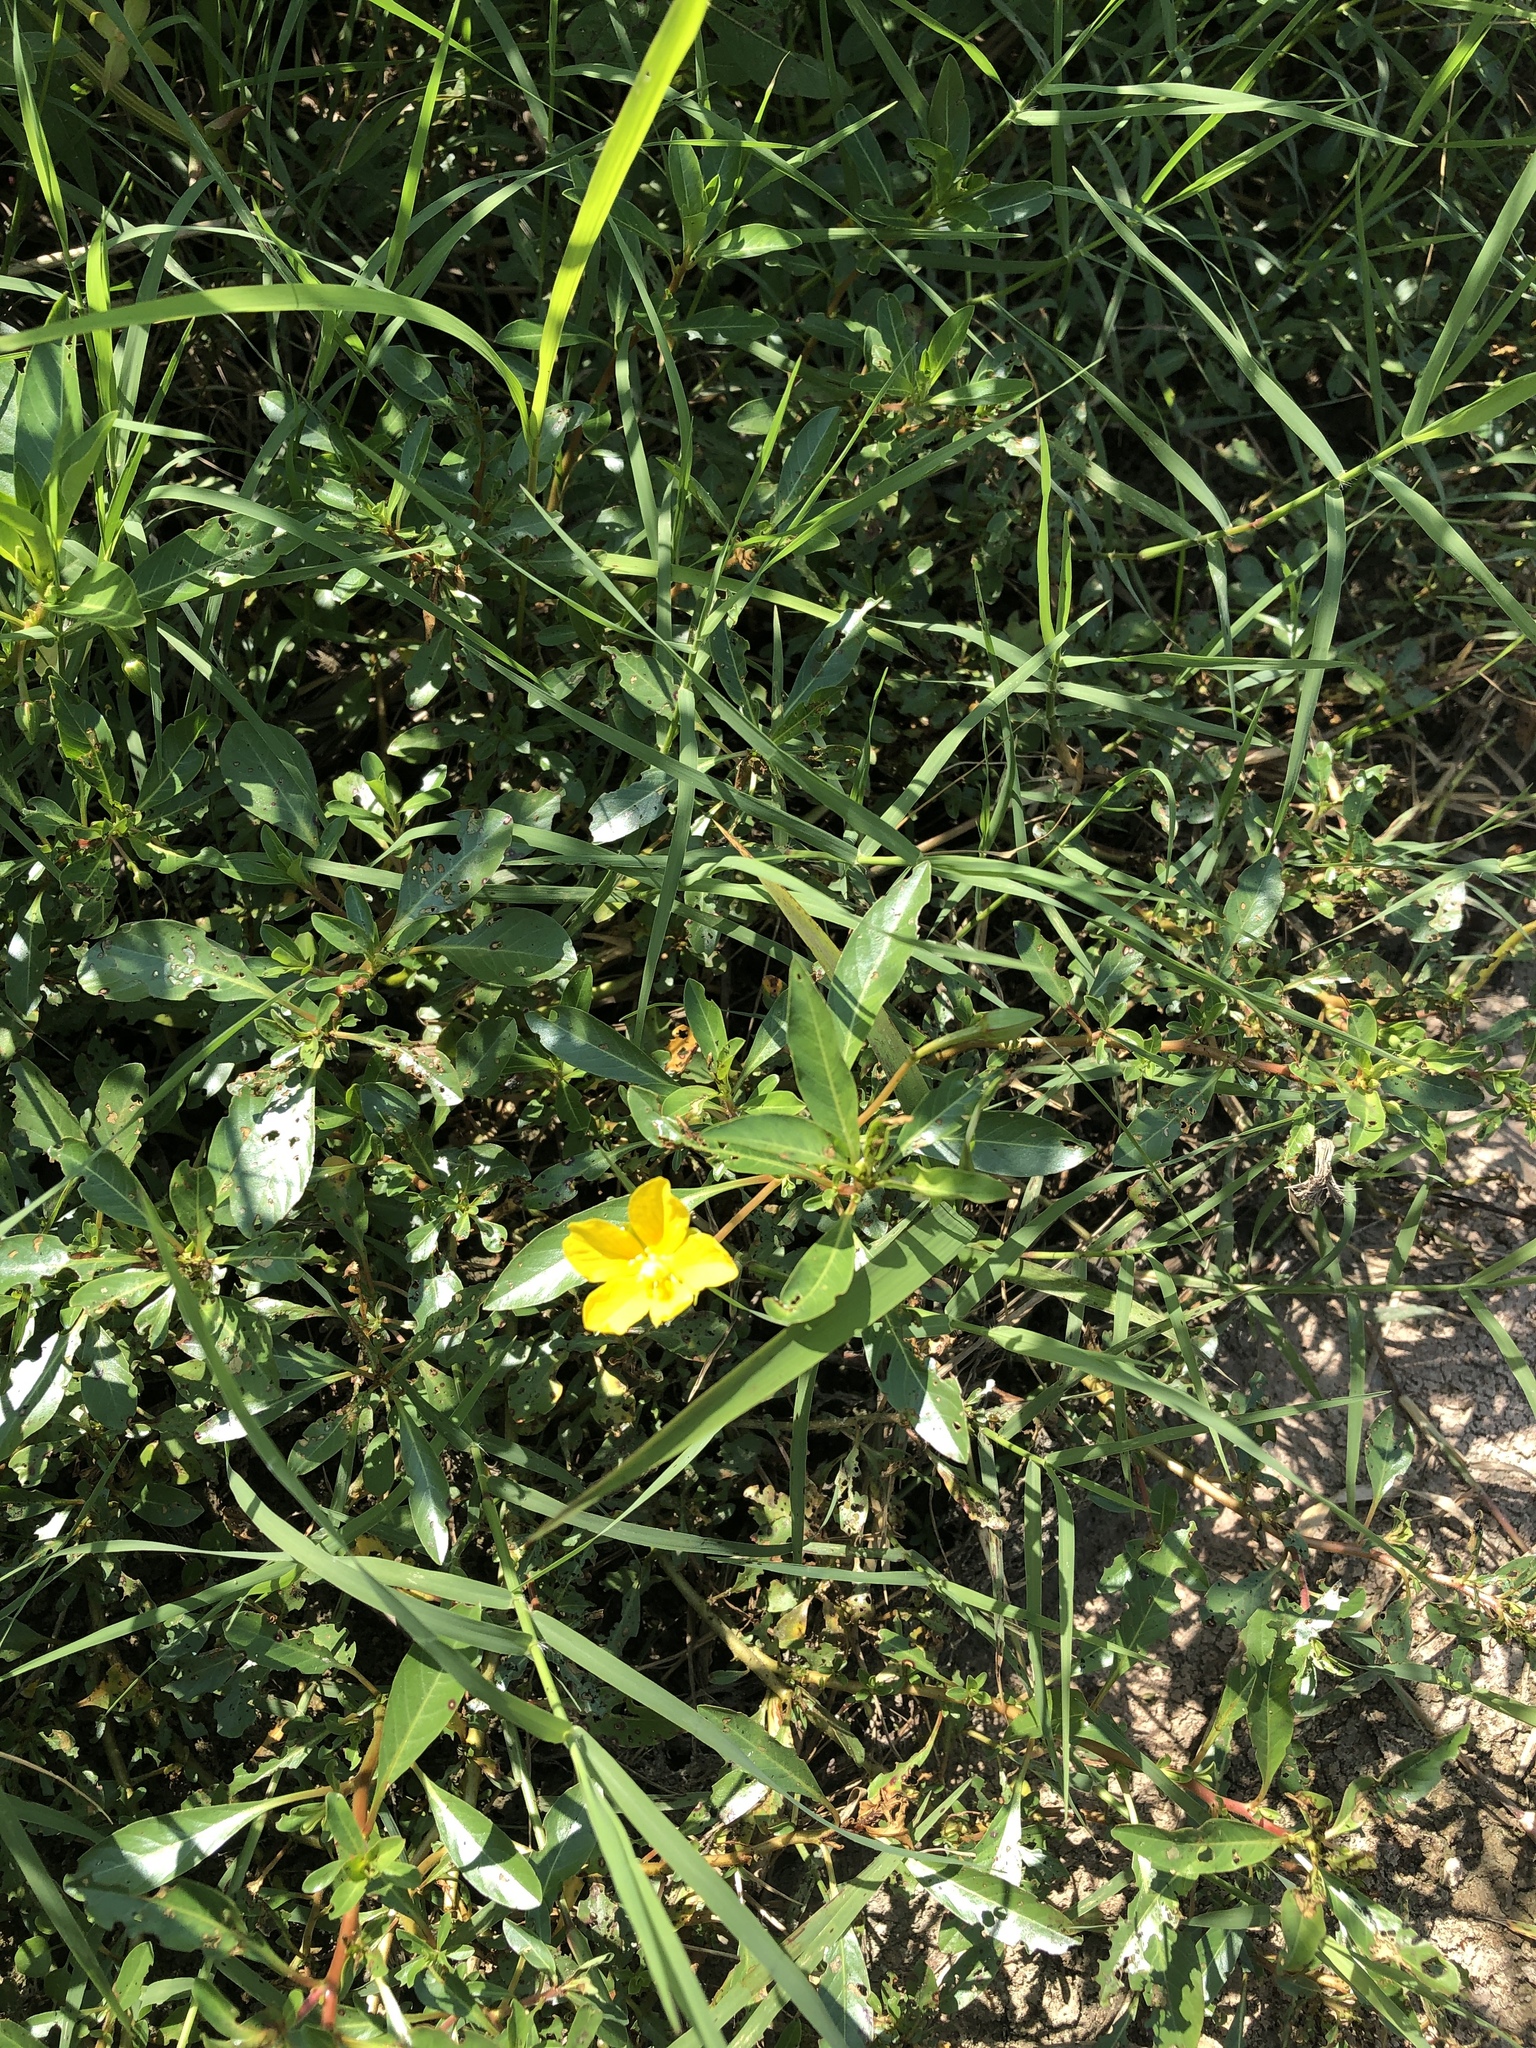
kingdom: Plantae
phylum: Tracheophyta
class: Magnoliopsida
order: Myrtales
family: Onagraceae
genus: Ludwigia
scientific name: Ludwigia peploides
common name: Floating primrose-willow
